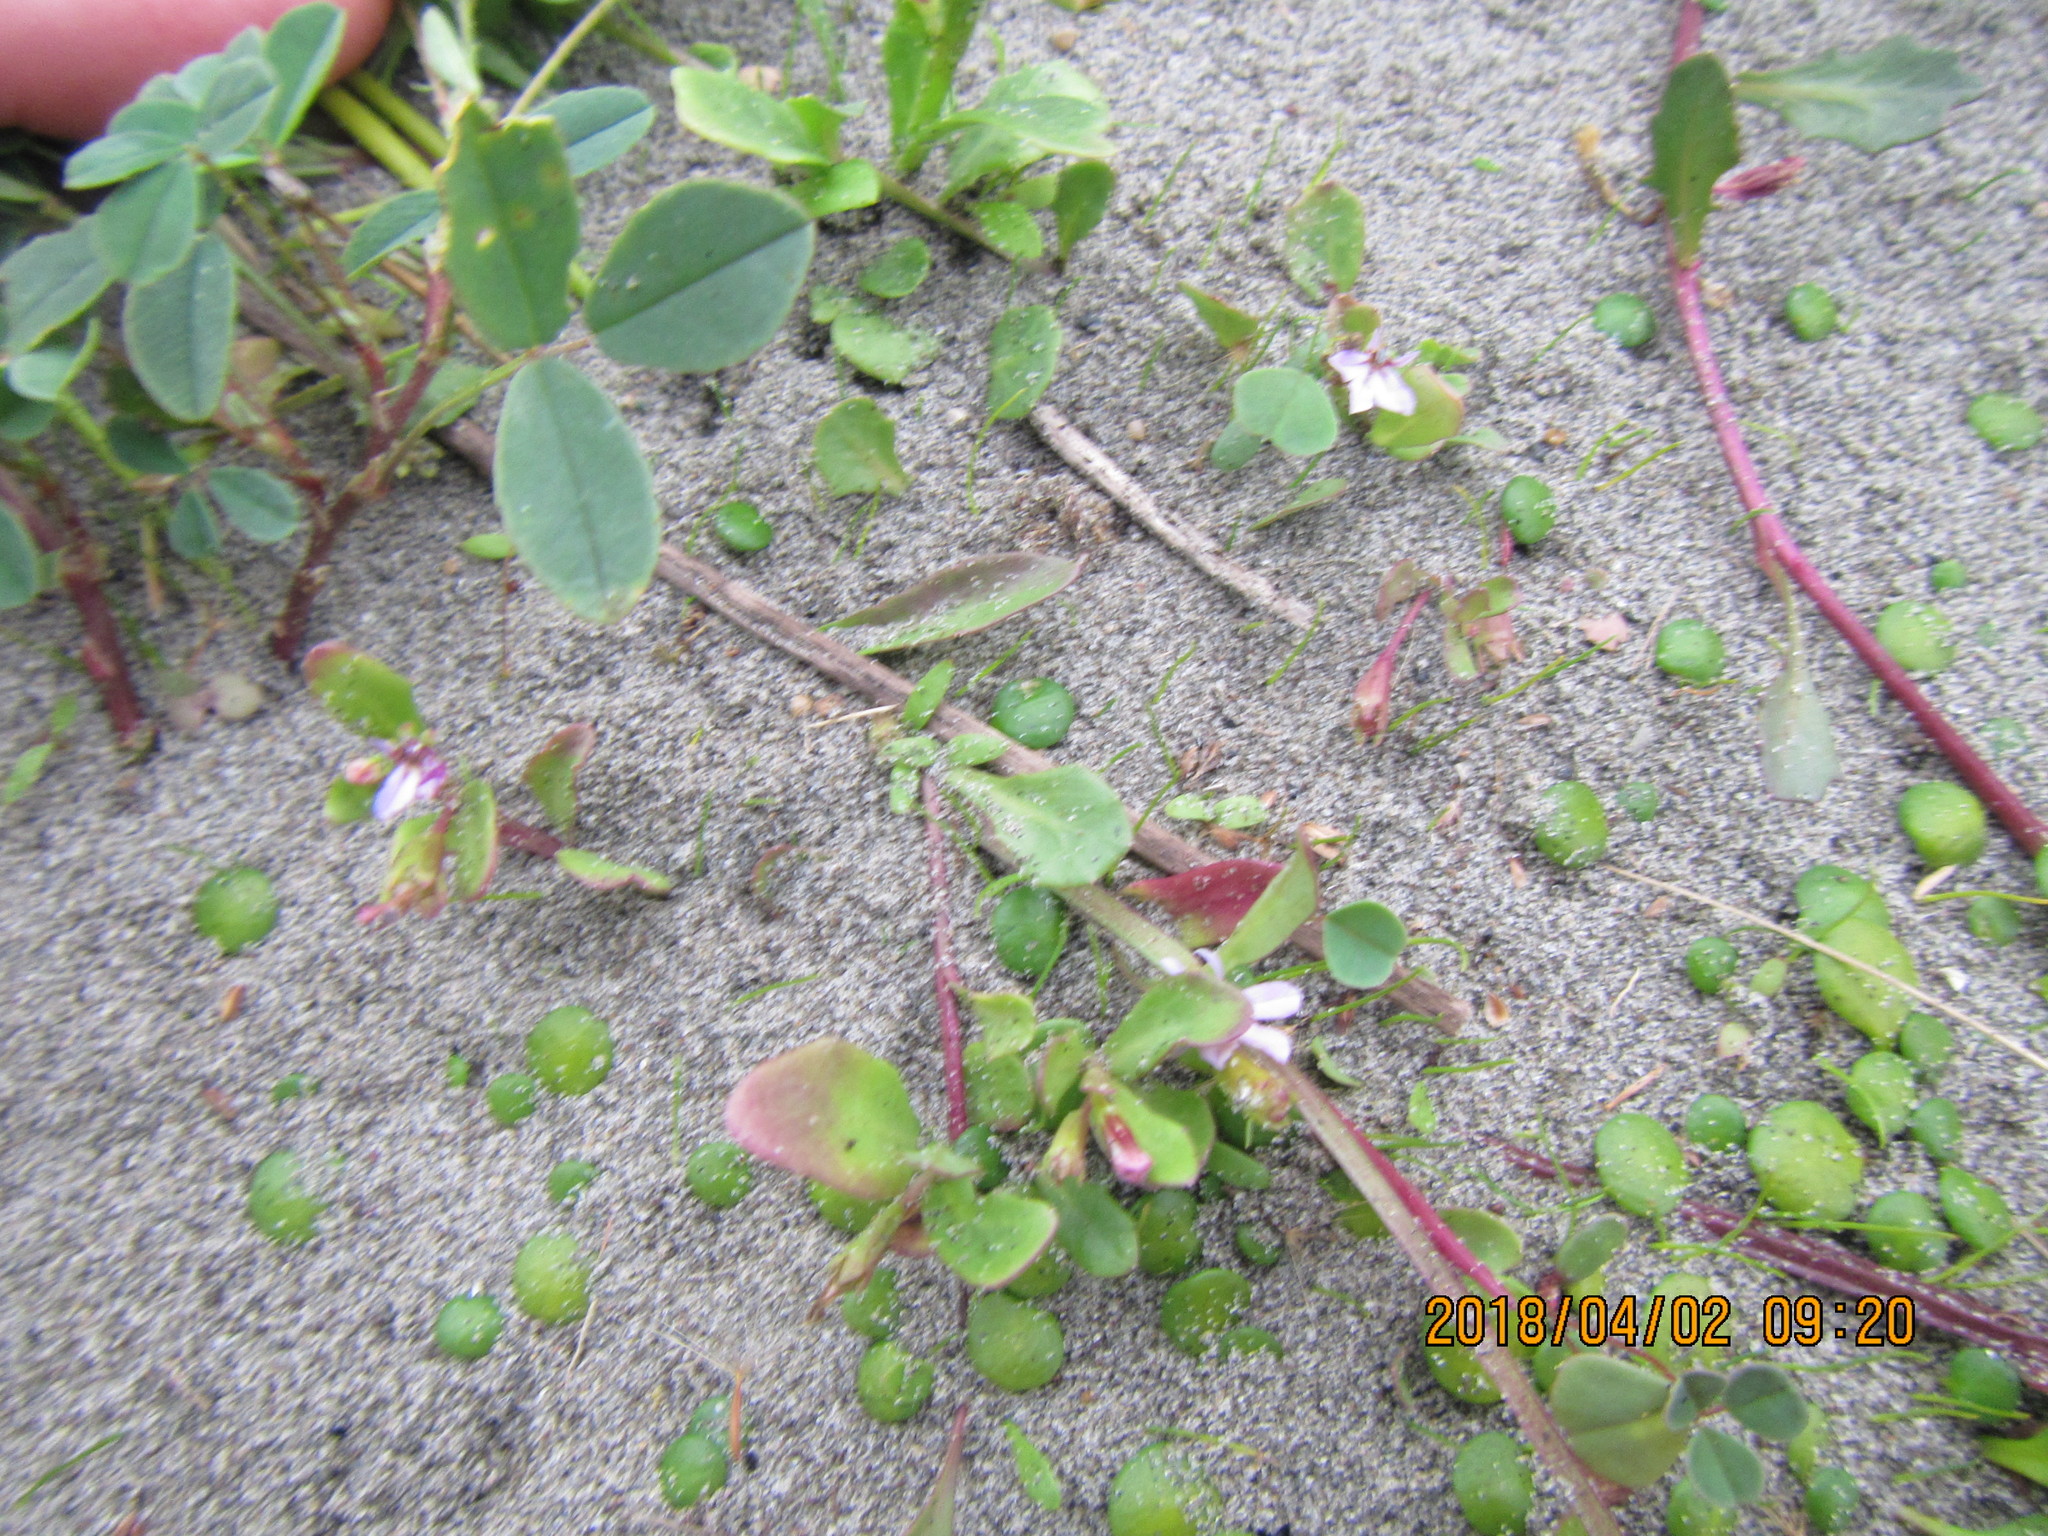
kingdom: Plantae
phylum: Tracheophyta
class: Magnoliopsida
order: Asterales
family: Campanulaceae
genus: Lobelia
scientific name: Lobelia anceps
